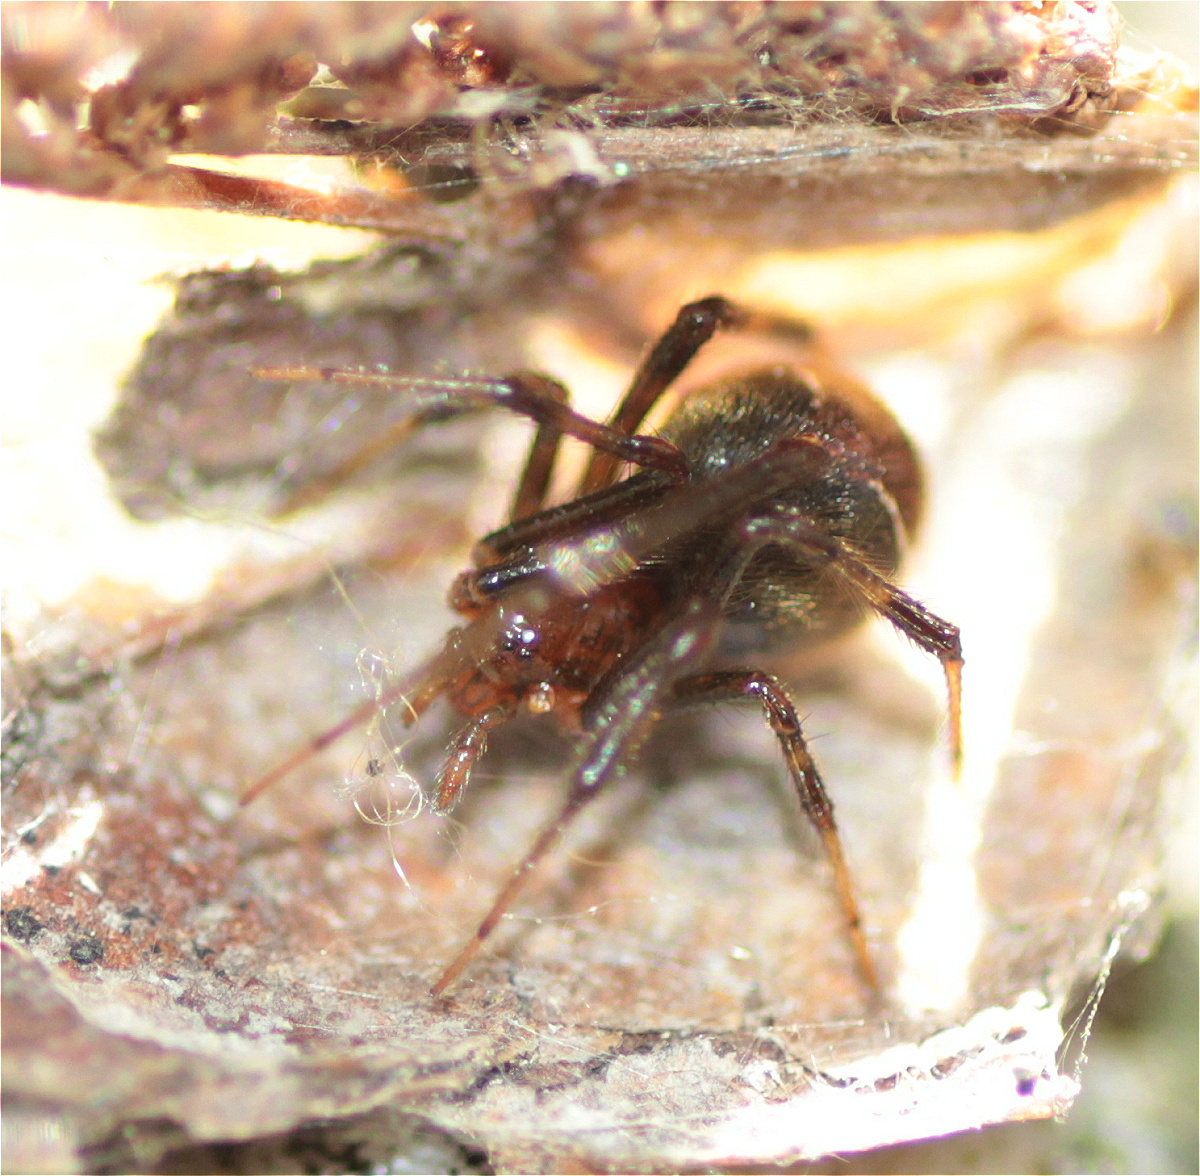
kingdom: Animalia
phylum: Arthropoda
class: Arachnida
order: Araneae
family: Theridiidae
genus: Nihonhimea
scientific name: Nihonhimea tesselata
